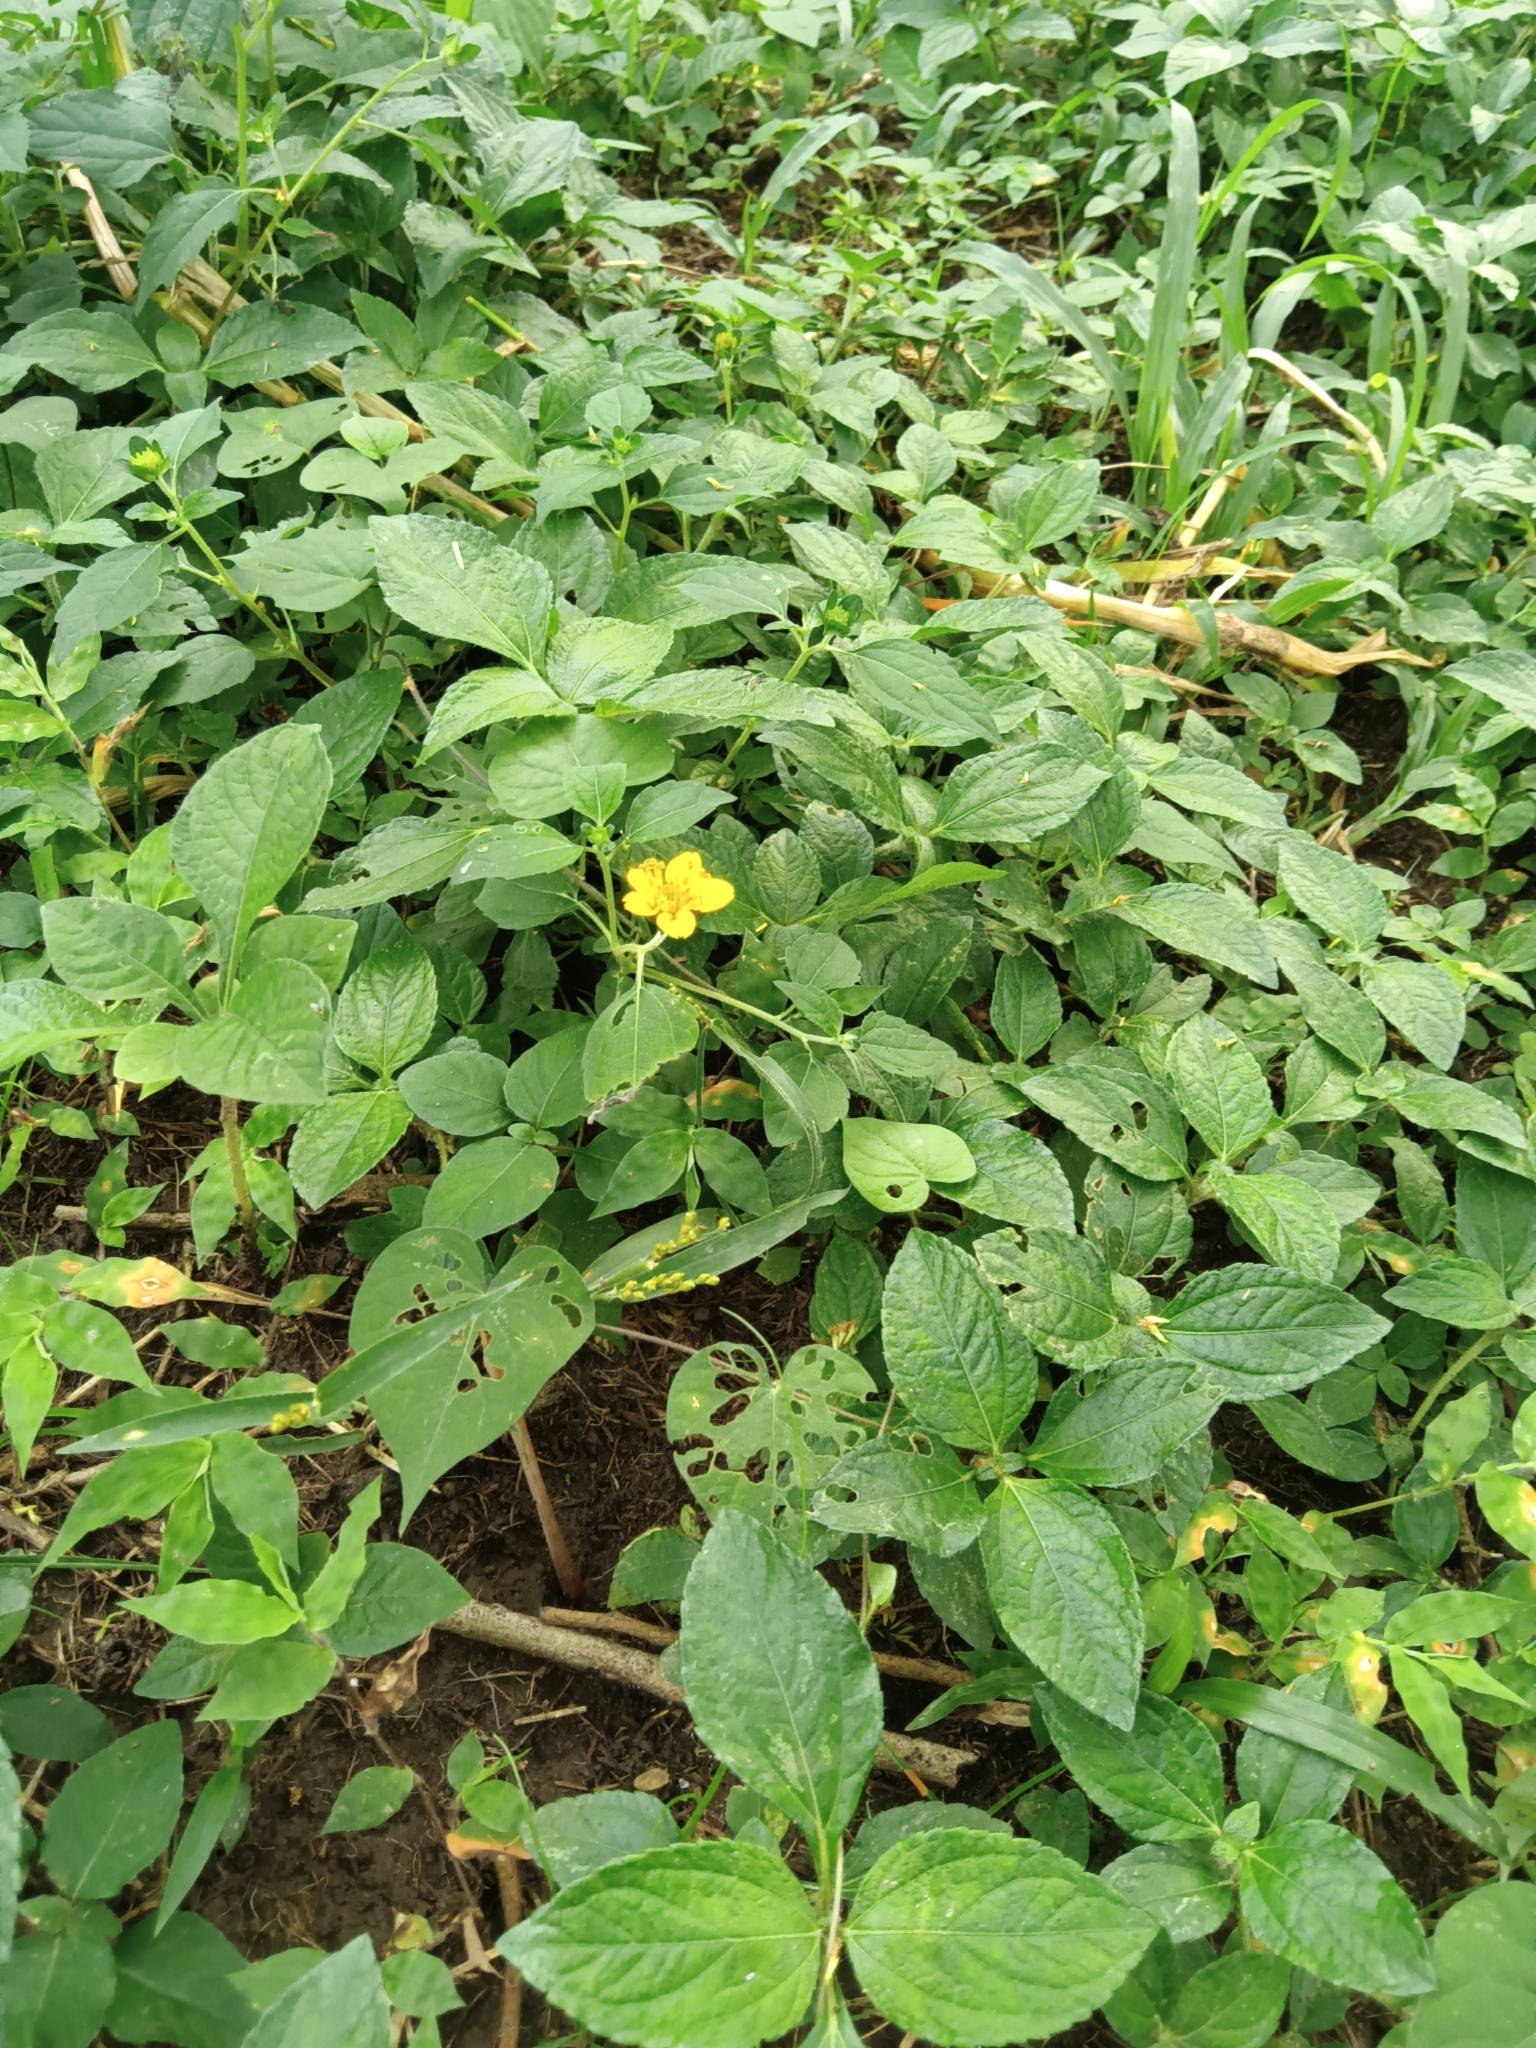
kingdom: Plantae
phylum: Tracheophyta
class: Magnoliopsida
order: Asterales
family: Asteraceae
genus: Sclerocarpus
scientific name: Sclerocarpus divaricatus
